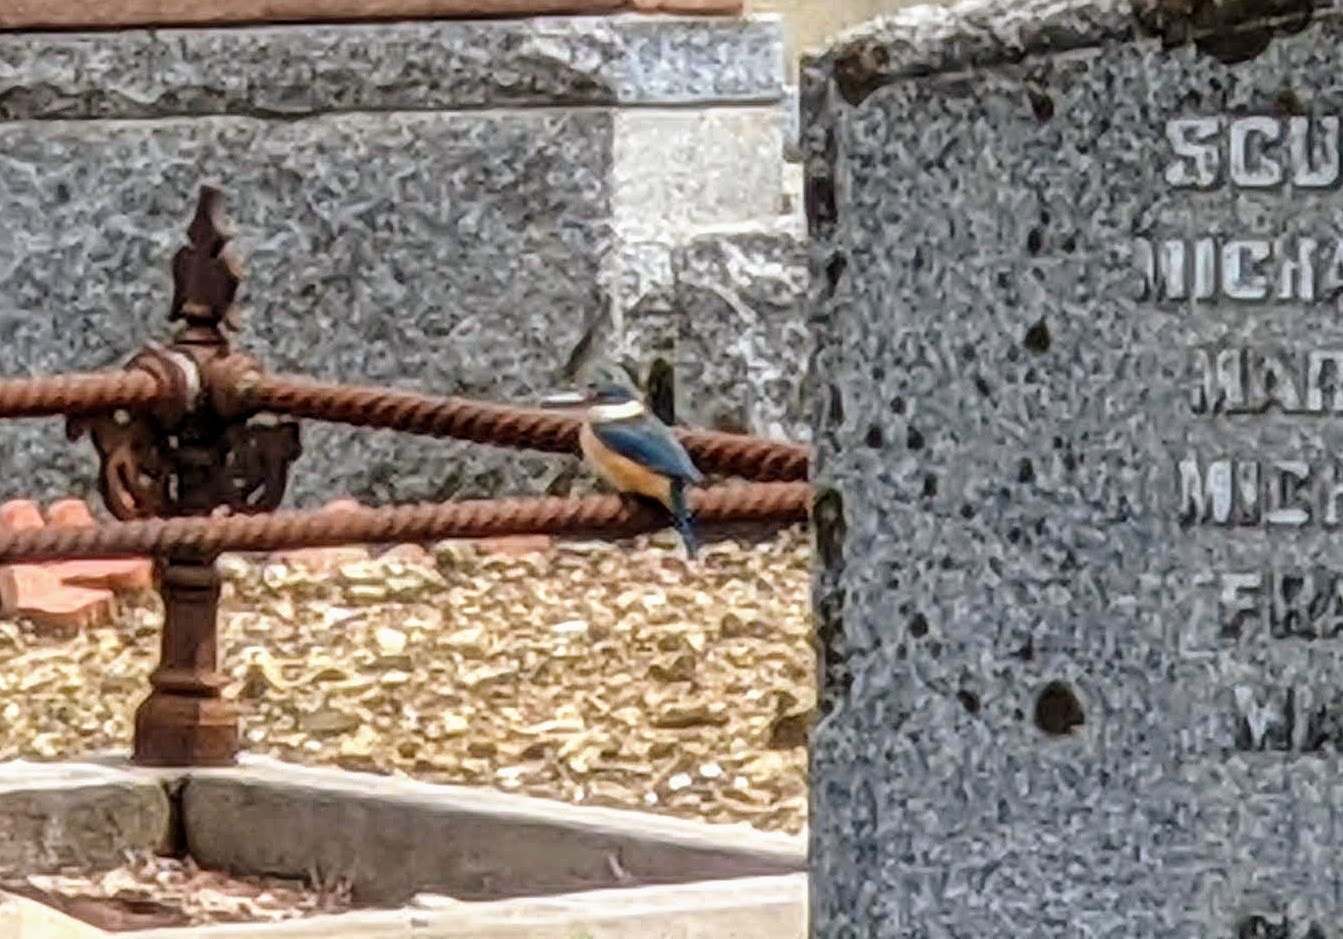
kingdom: Animalia
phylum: Chordata
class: Aves
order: Coraciiformes
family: Alcedinidae
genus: Todiramphus
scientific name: Todiramphus sanctus
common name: Sacred kingfisher
